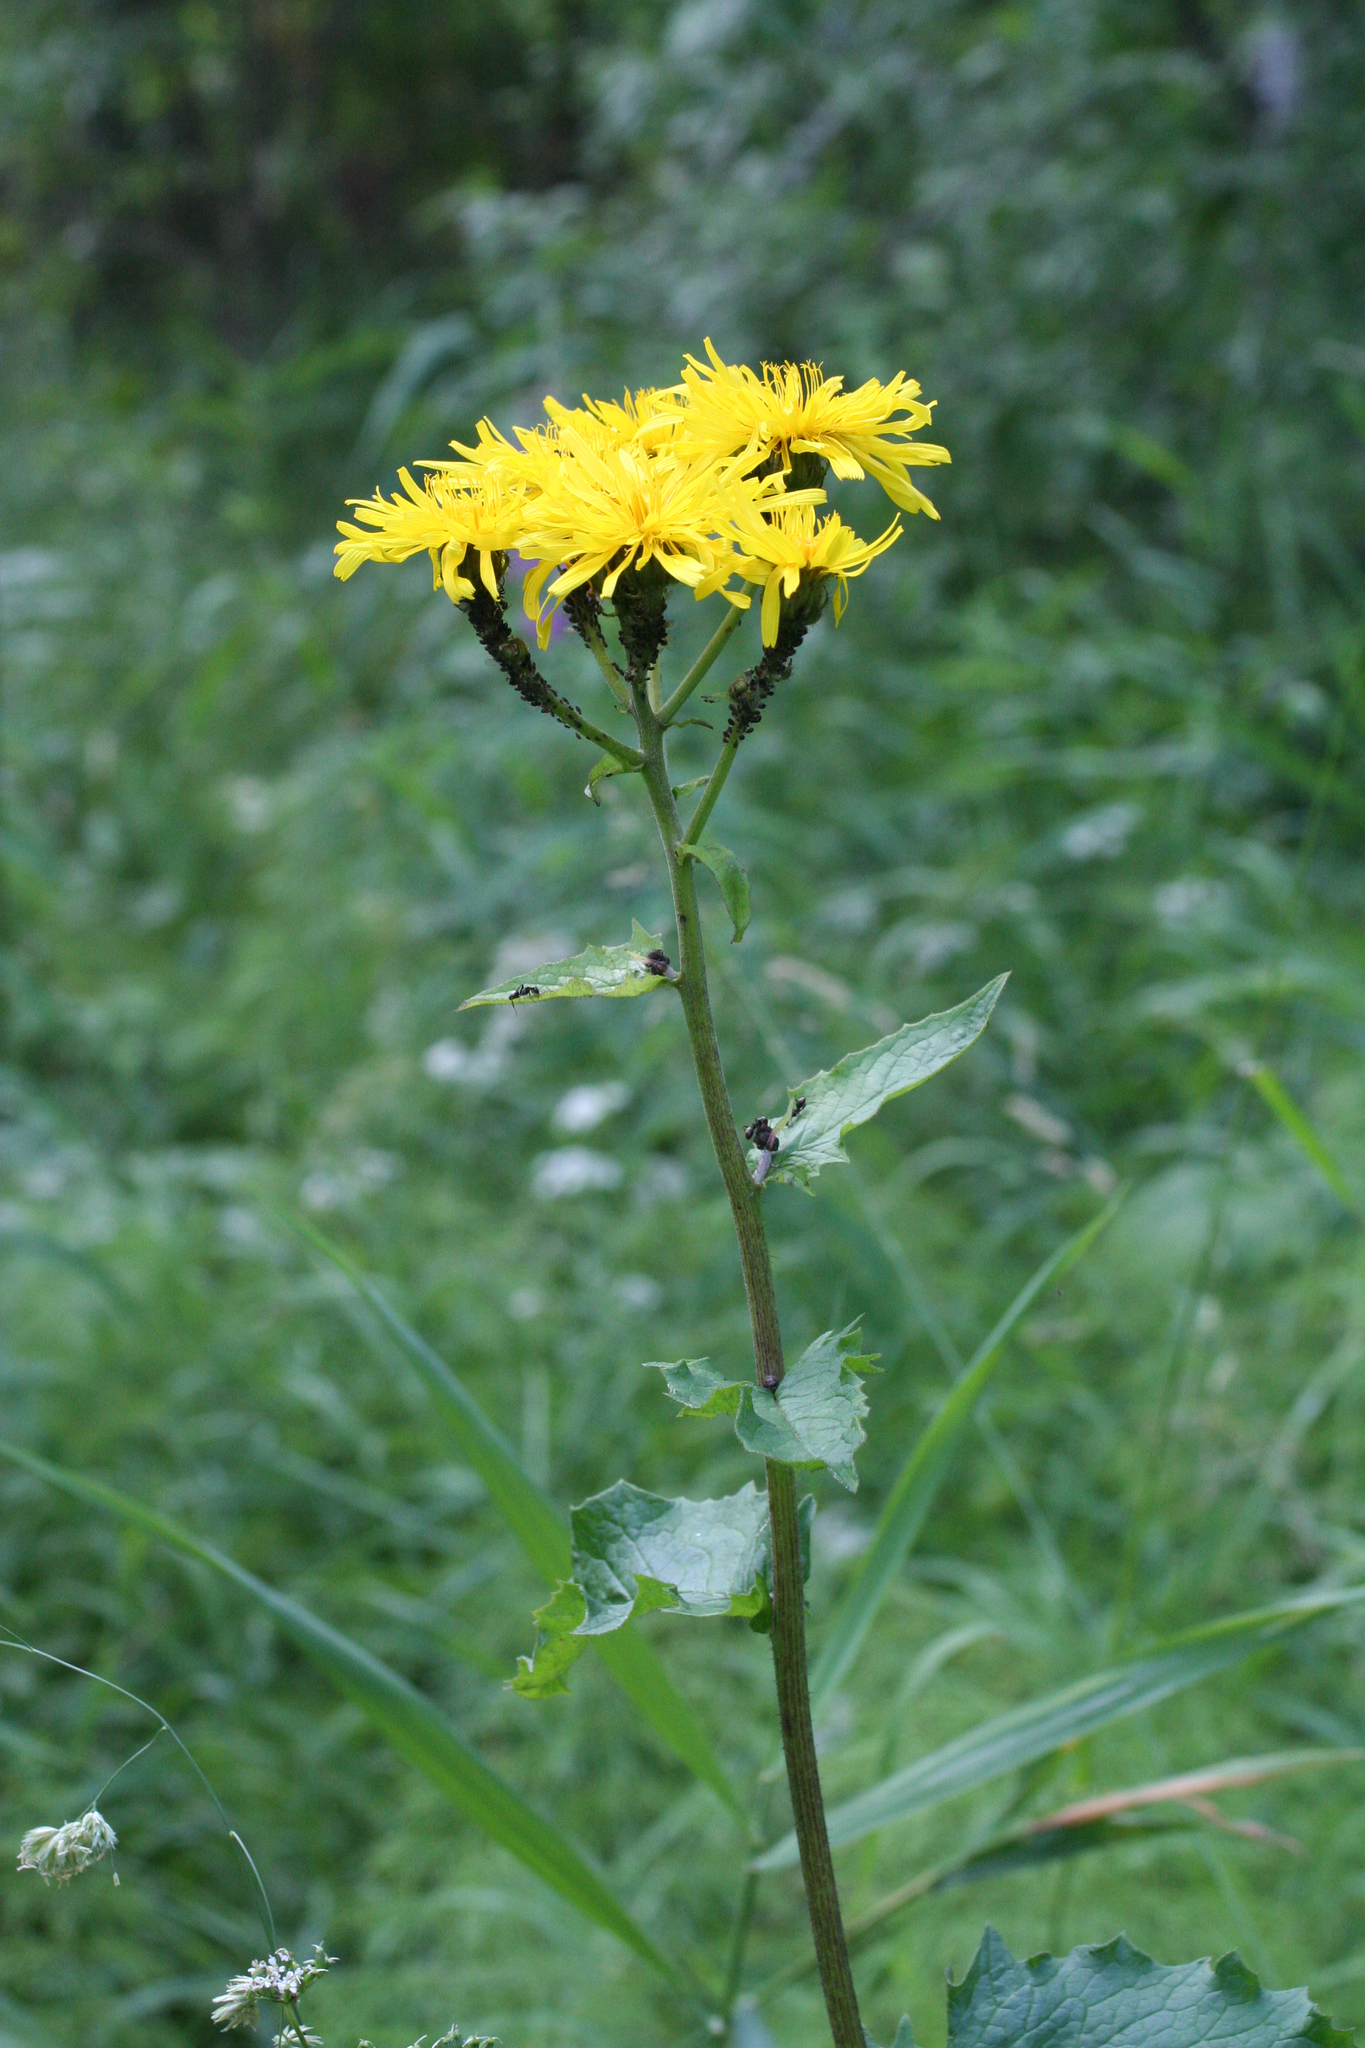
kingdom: Plantae
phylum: Tracheophyta
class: Magnoliopsida
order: Asterales
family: Asteraceae
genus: Crepis
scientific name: Crepis sibirica
